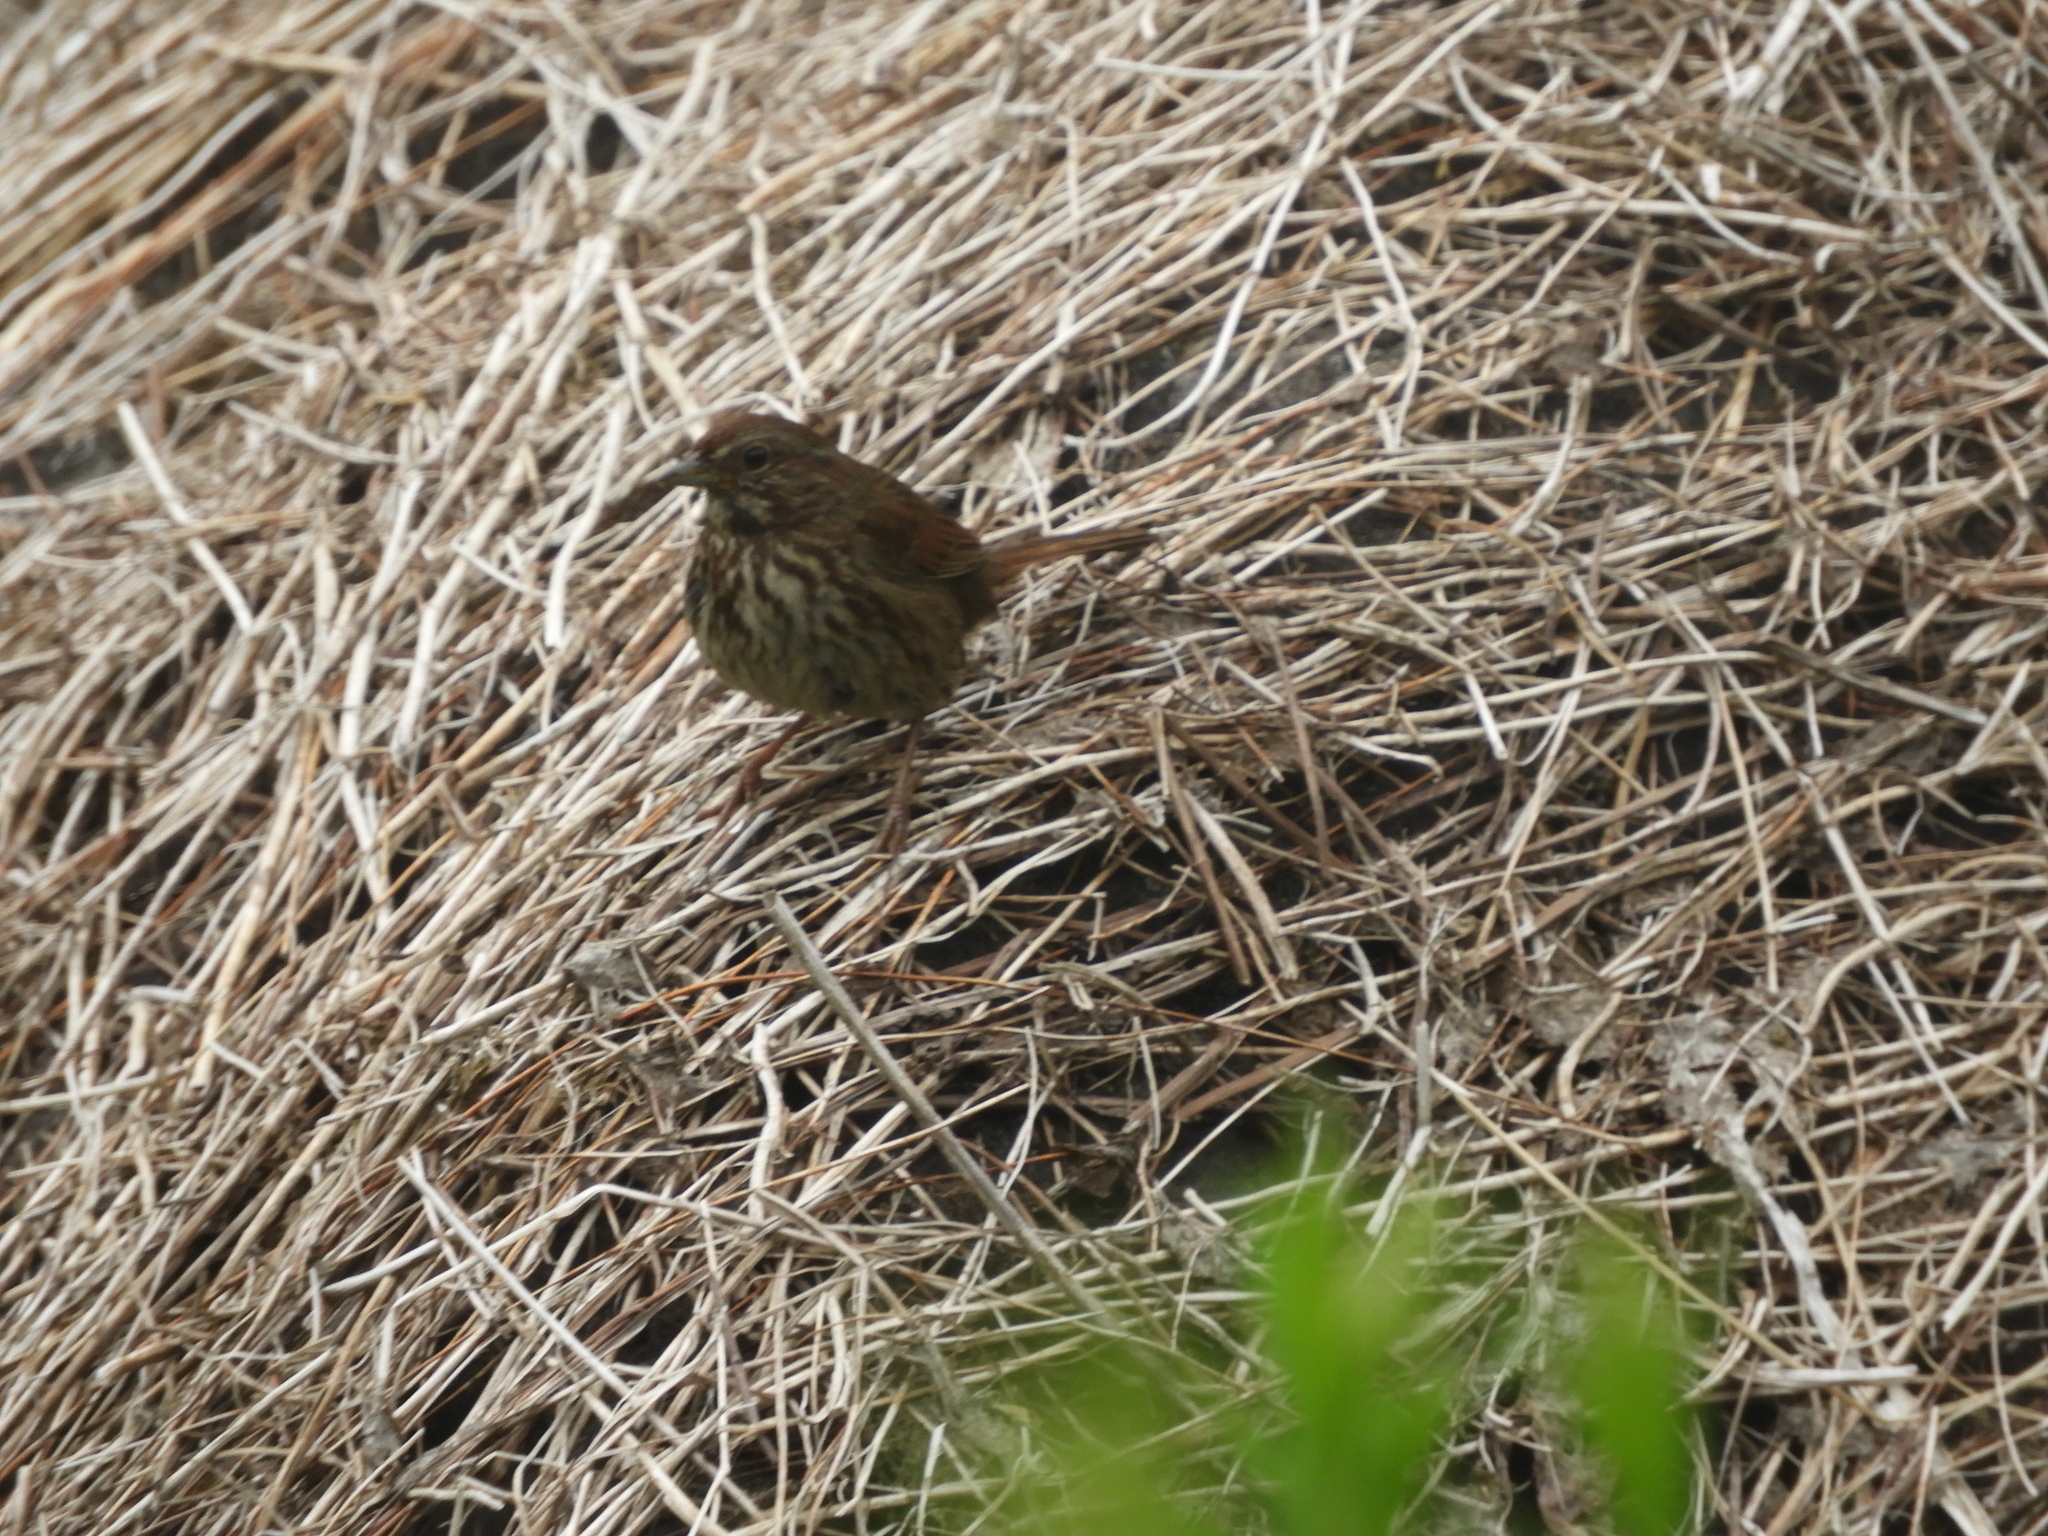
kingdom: Animalia
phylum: Chordata
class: Aves
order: Passeriformes
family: Passerellidae
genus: Melospiza
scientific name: Melospiza melodia
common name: Song sparrow
